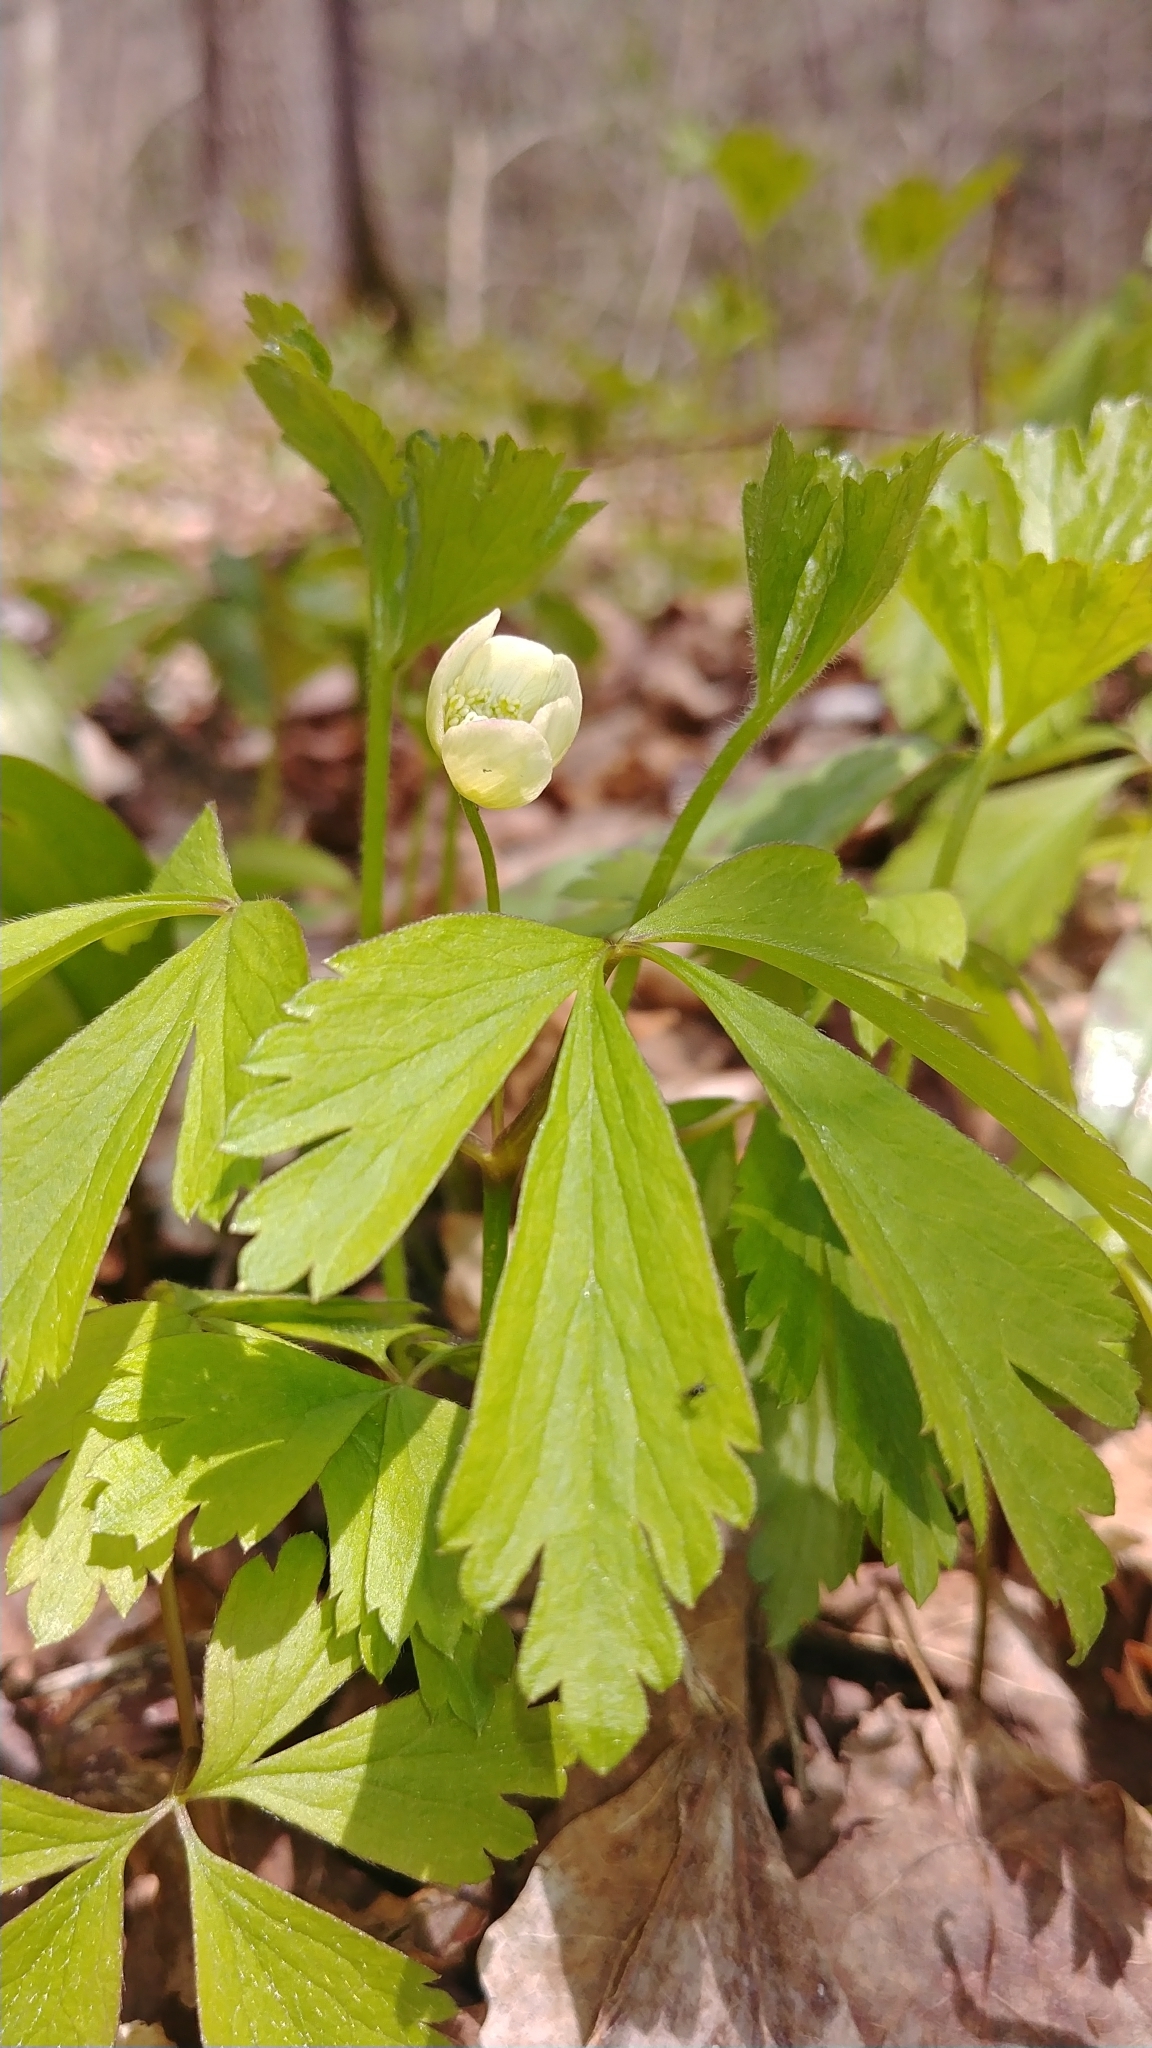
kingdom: Plantae
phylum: Tracheophyta
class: Magnoliopsida
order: Ranunculales
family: Ranunculaceae
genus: Anemone
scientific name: Anemone quinquefolia
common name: Wood anemone
